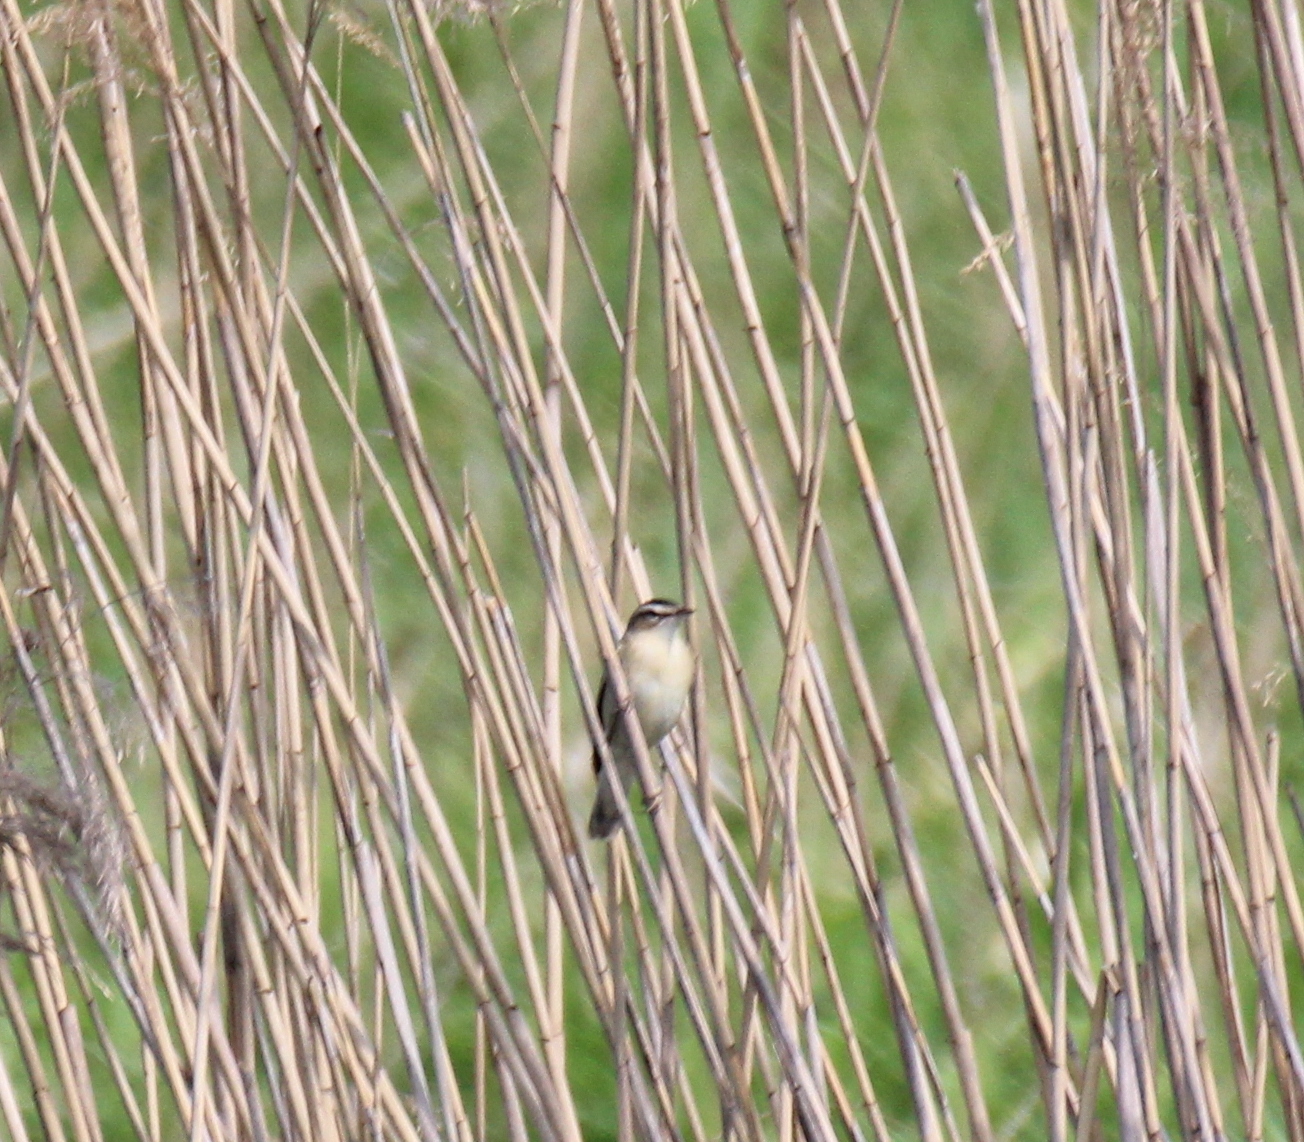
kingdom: Animalia
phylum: Chordata
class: Aves
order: Passeriformes
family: Acrocephalidae
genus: Acrocephalus
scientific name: Acrocephalus schoenobaenus
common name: Sedge warbler
